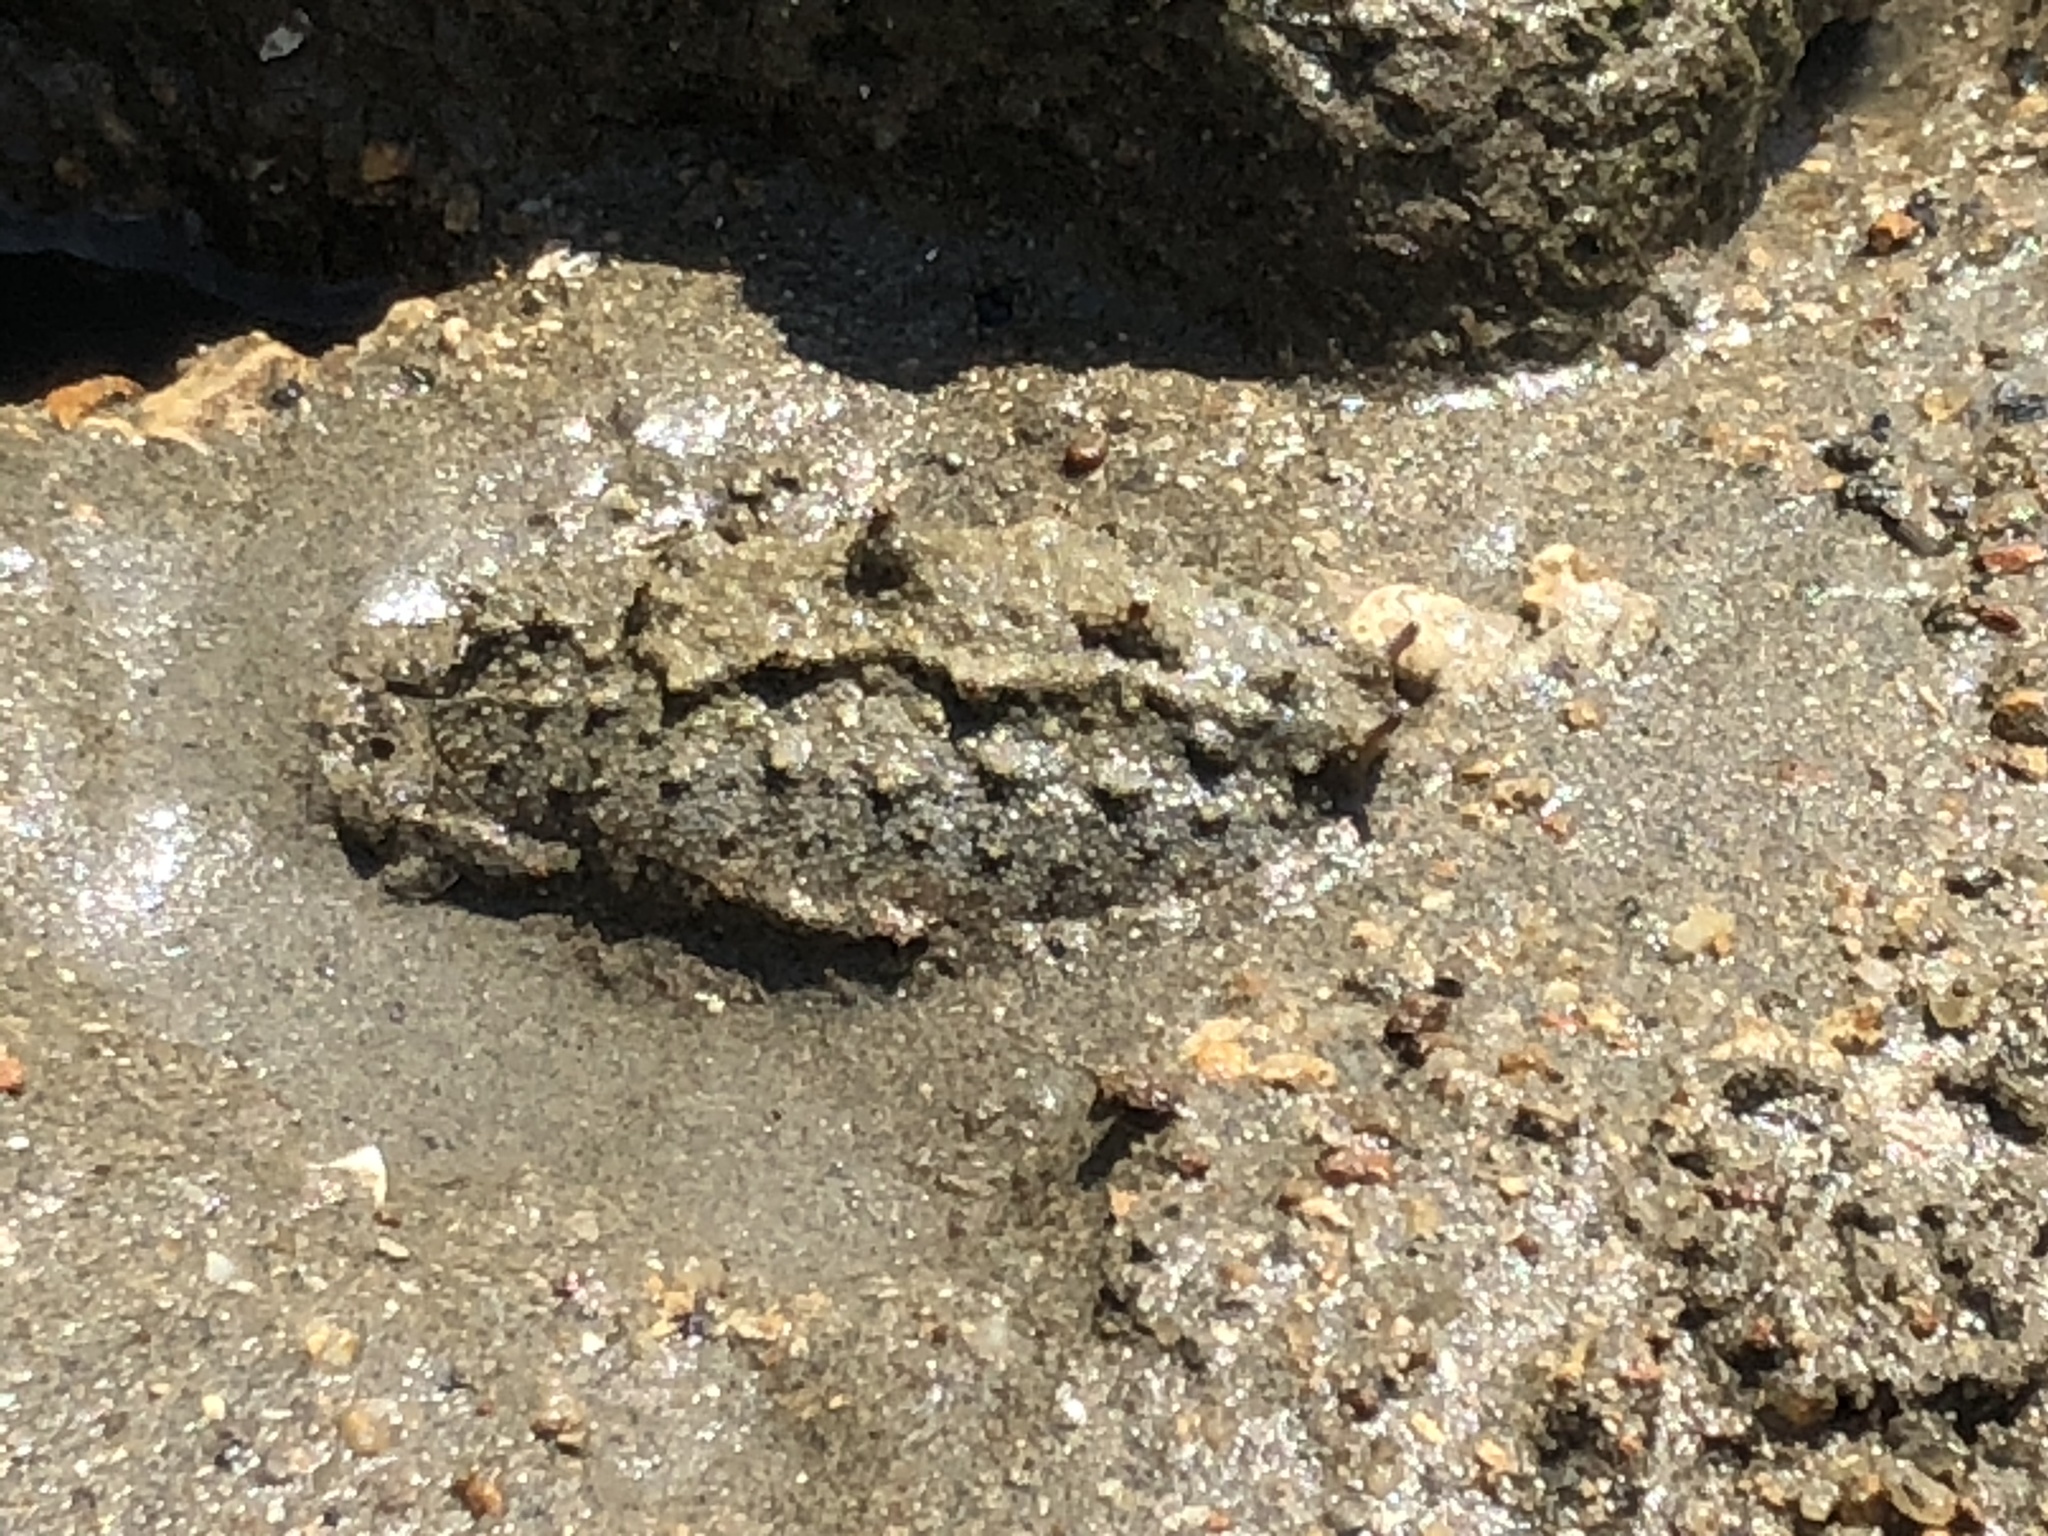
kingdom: Animalia
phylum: Mollusca
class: Gastropoda
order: Systellommatophora
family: Onchidiidae
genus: Paromoionchis
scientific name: Paromoionchis tumidus
